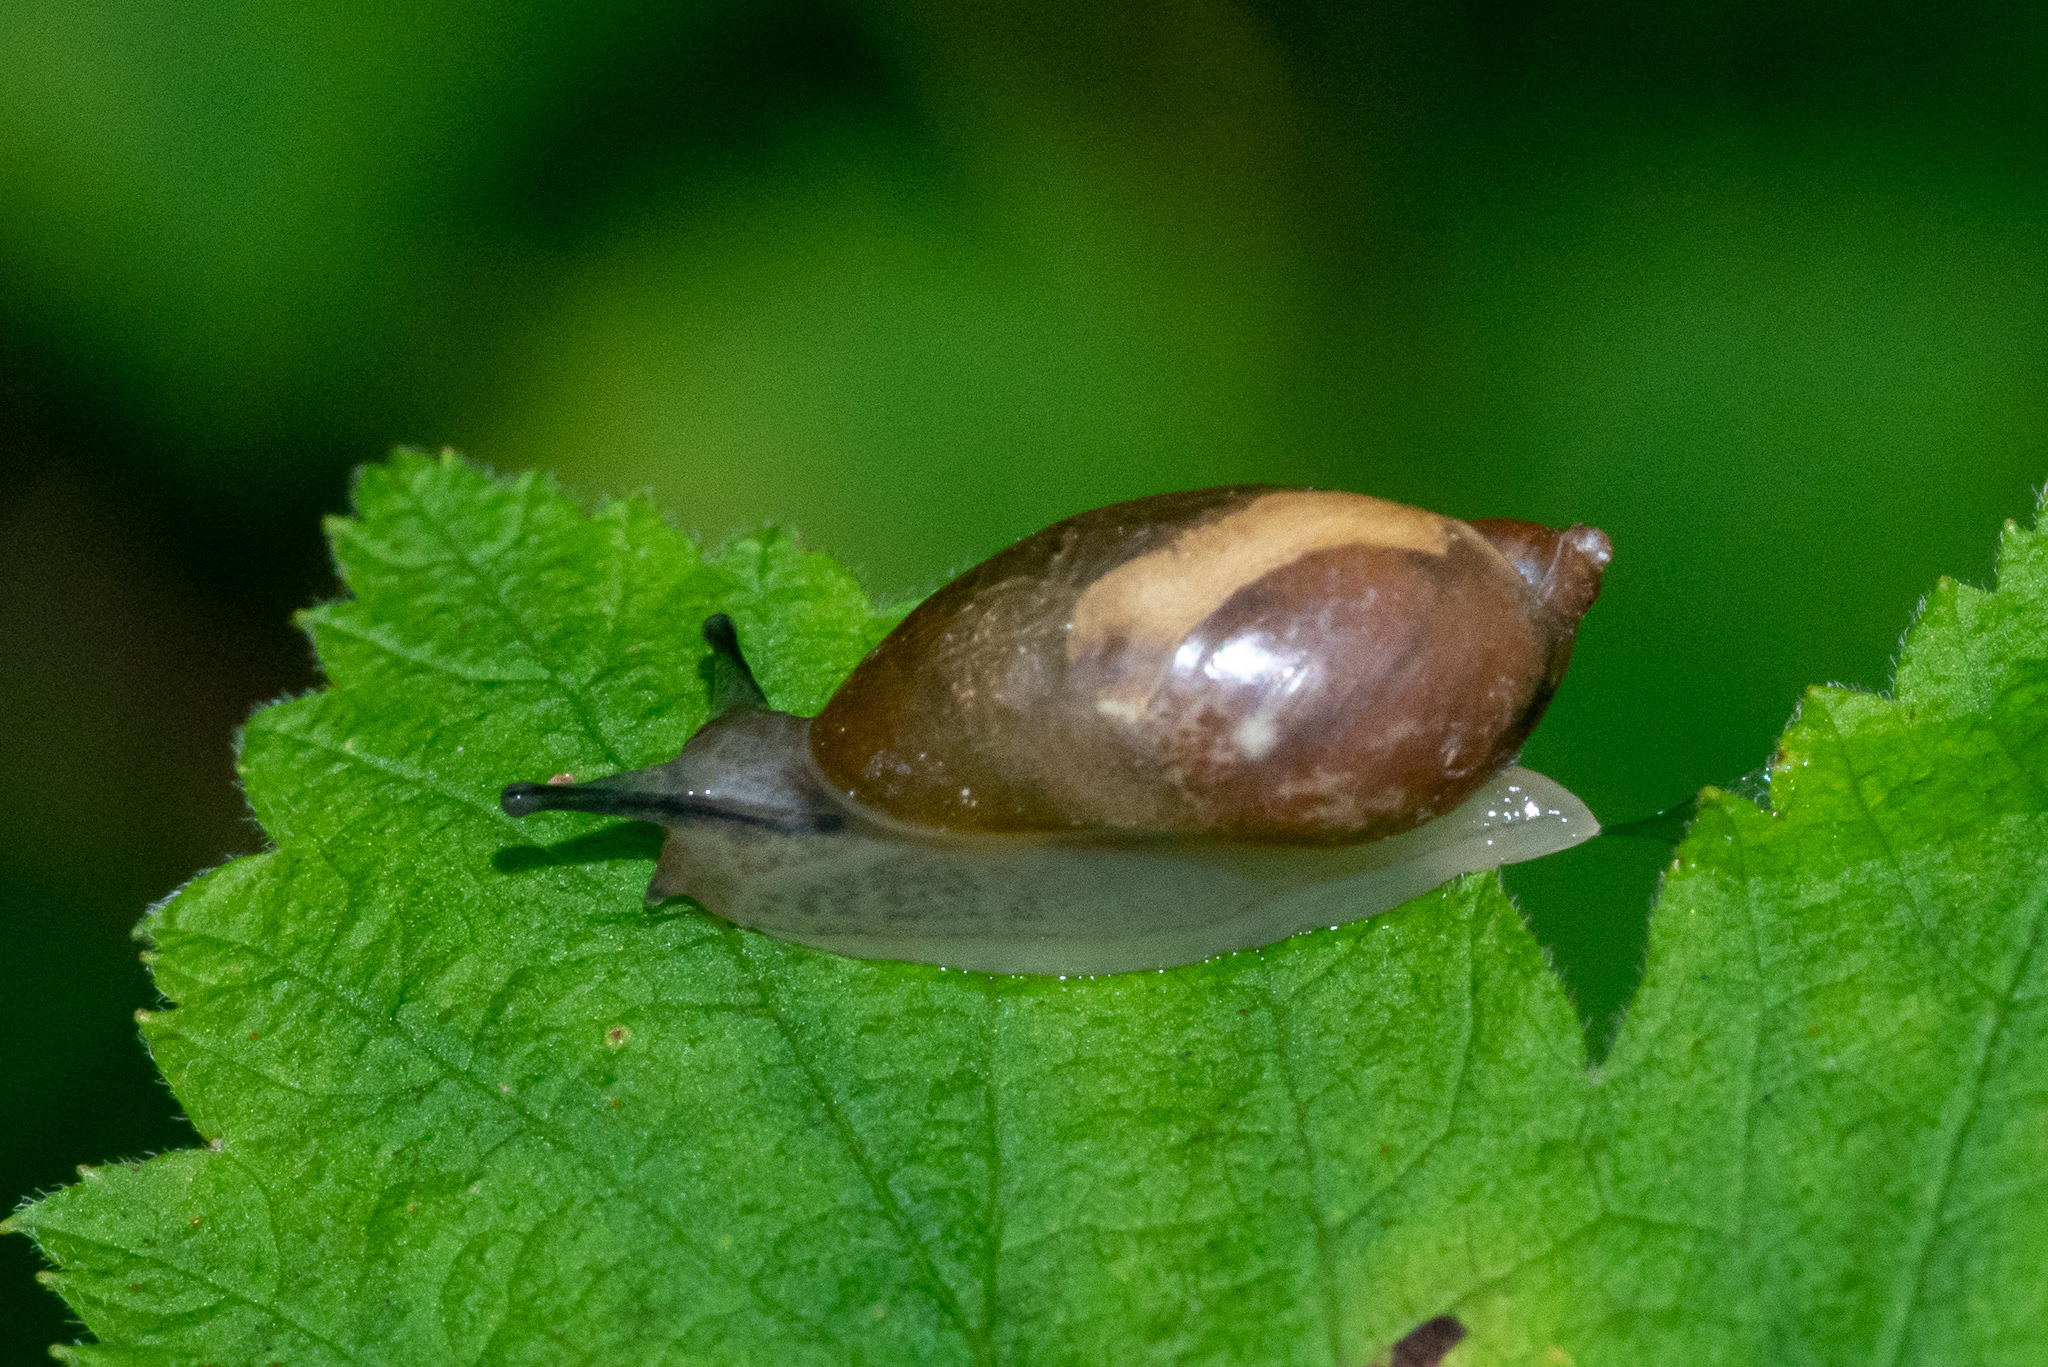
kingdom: Animalia
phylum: Mollusca
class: Gastropoda
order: Stylommatophora
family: Succineidae
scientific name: Succineidae
